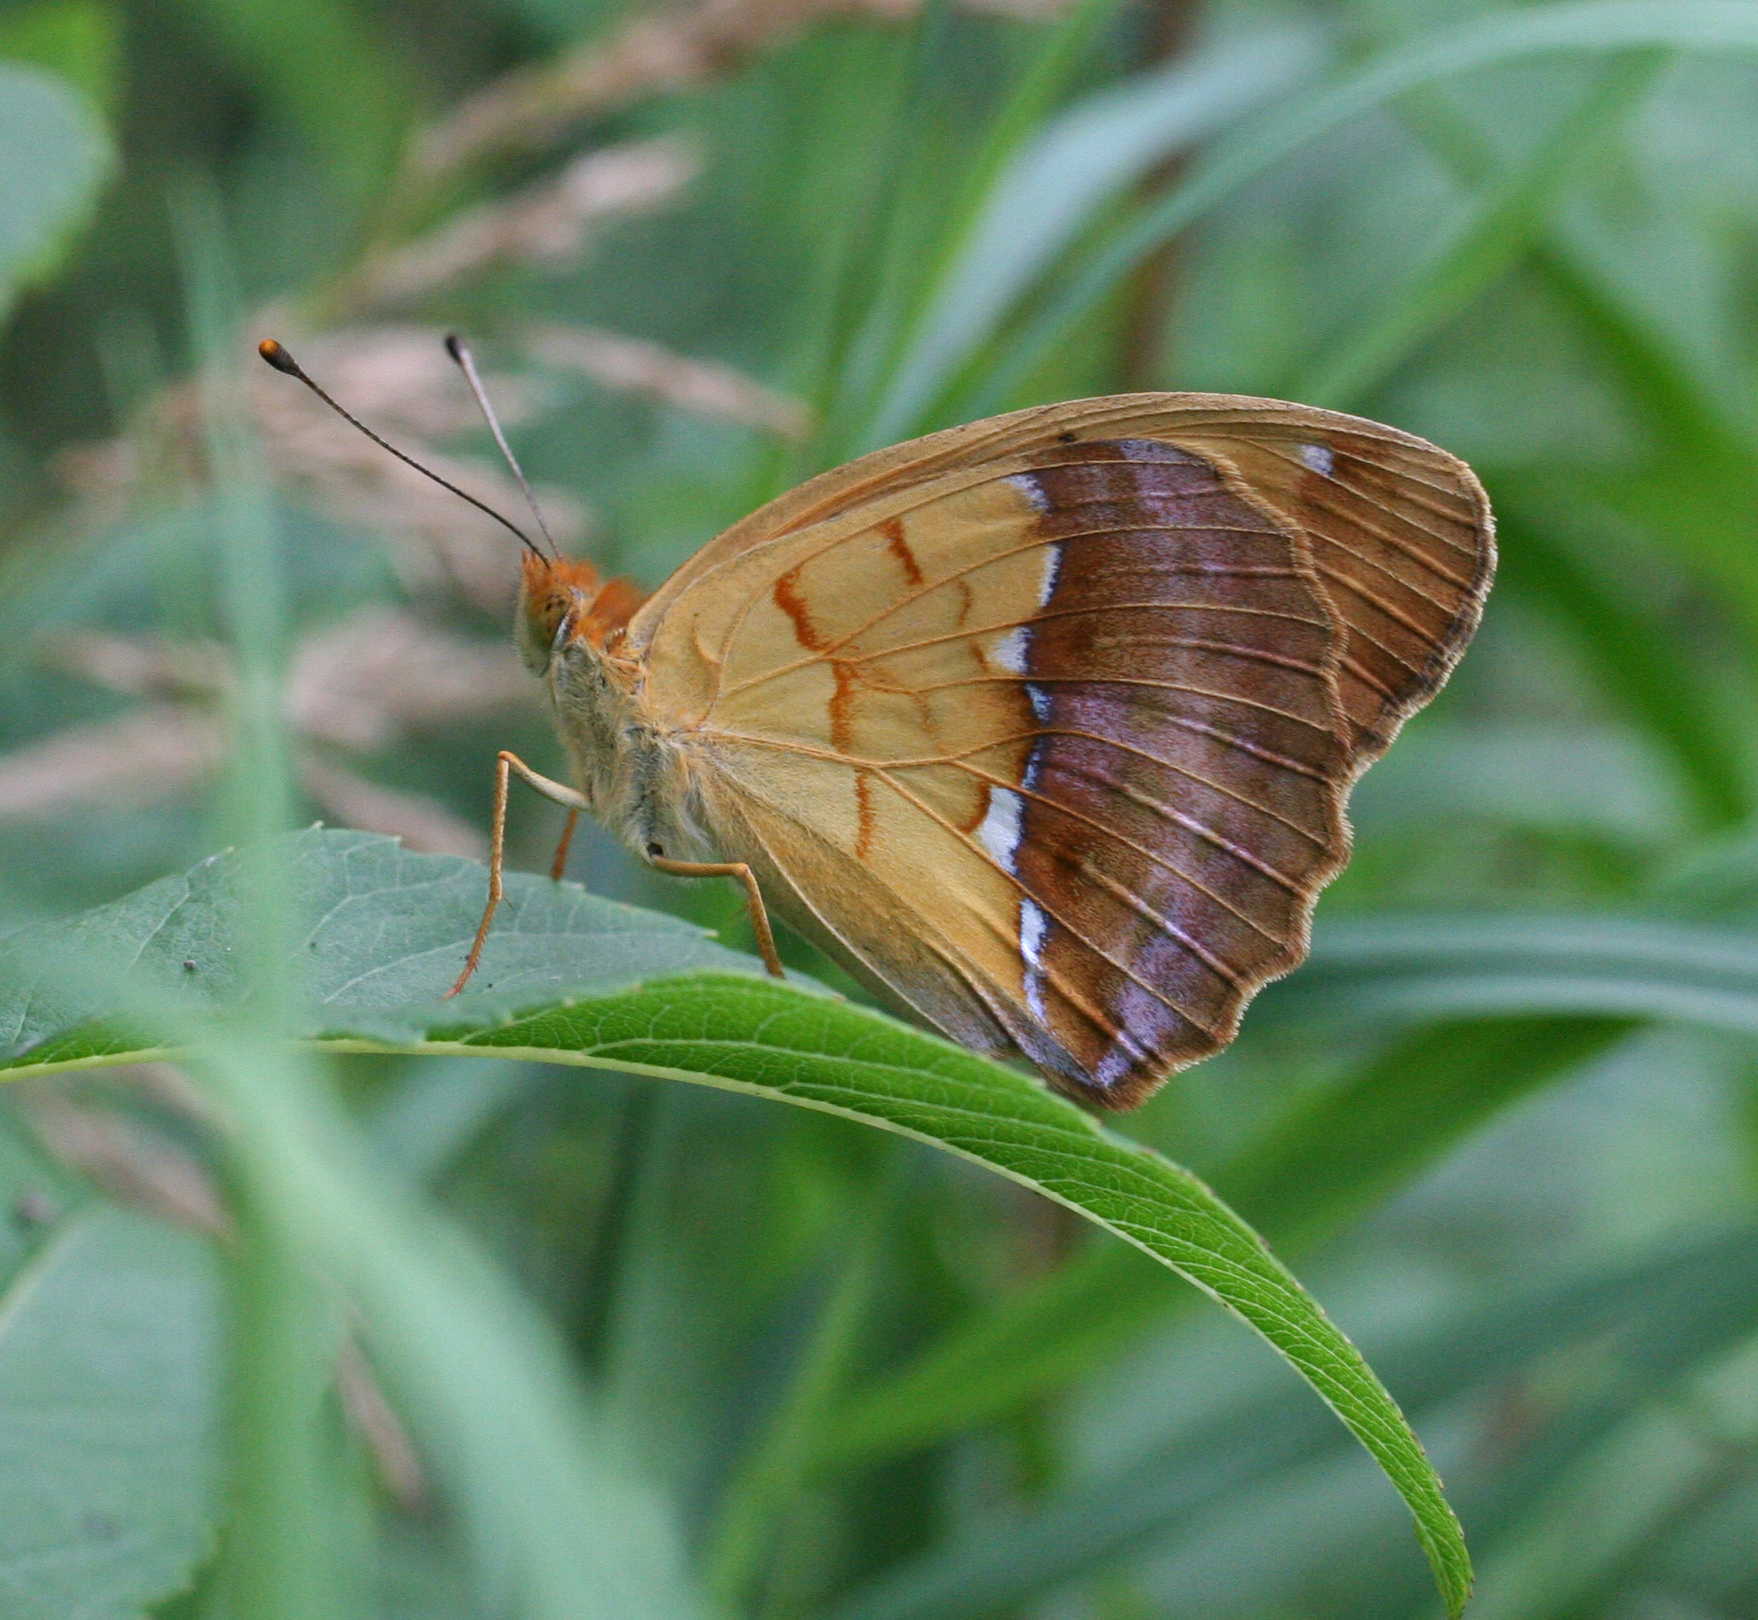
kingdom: Animalia
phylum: Arthropoda
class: Insecta
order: Lepidoptera
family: Nymphalidae
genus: Argyronome
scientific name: Argyronome laodice
